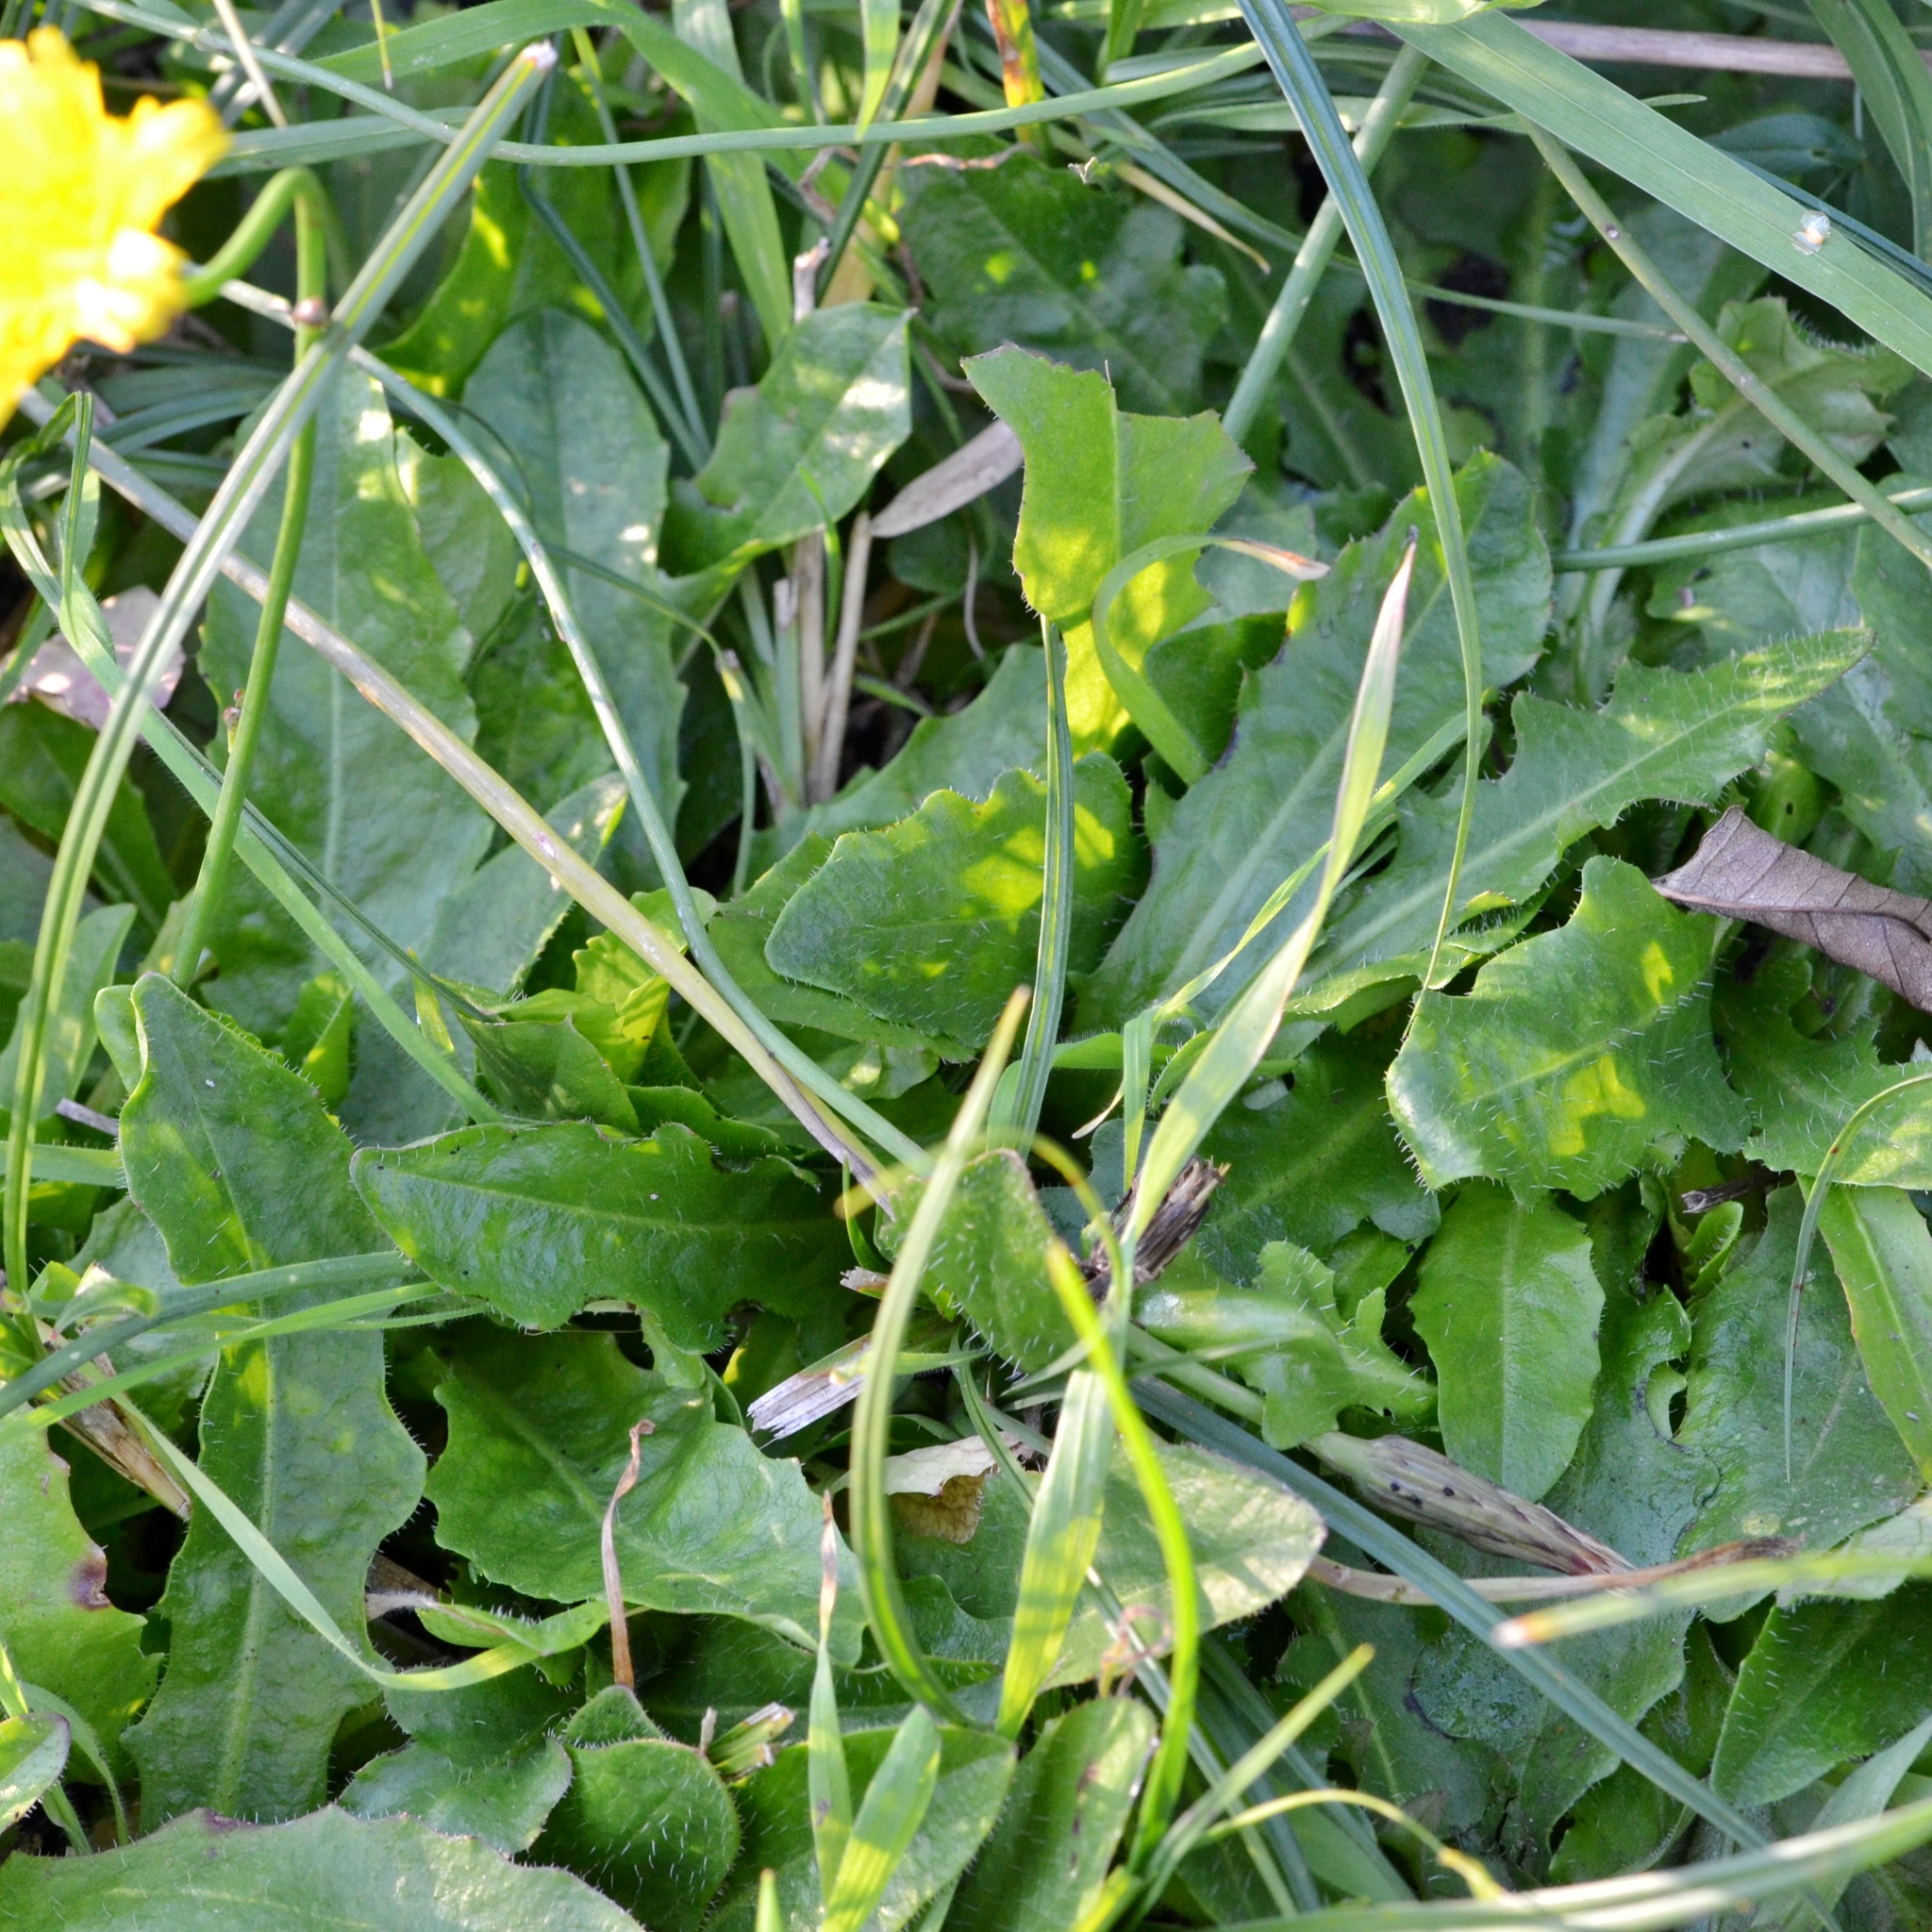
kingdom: Plantae
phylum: Tracheophyta
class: Magnoliopsida
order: Asterales
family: Asteraceae
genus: Hypochaeris
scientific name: Hypochaeris radicata
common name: Flatweed
